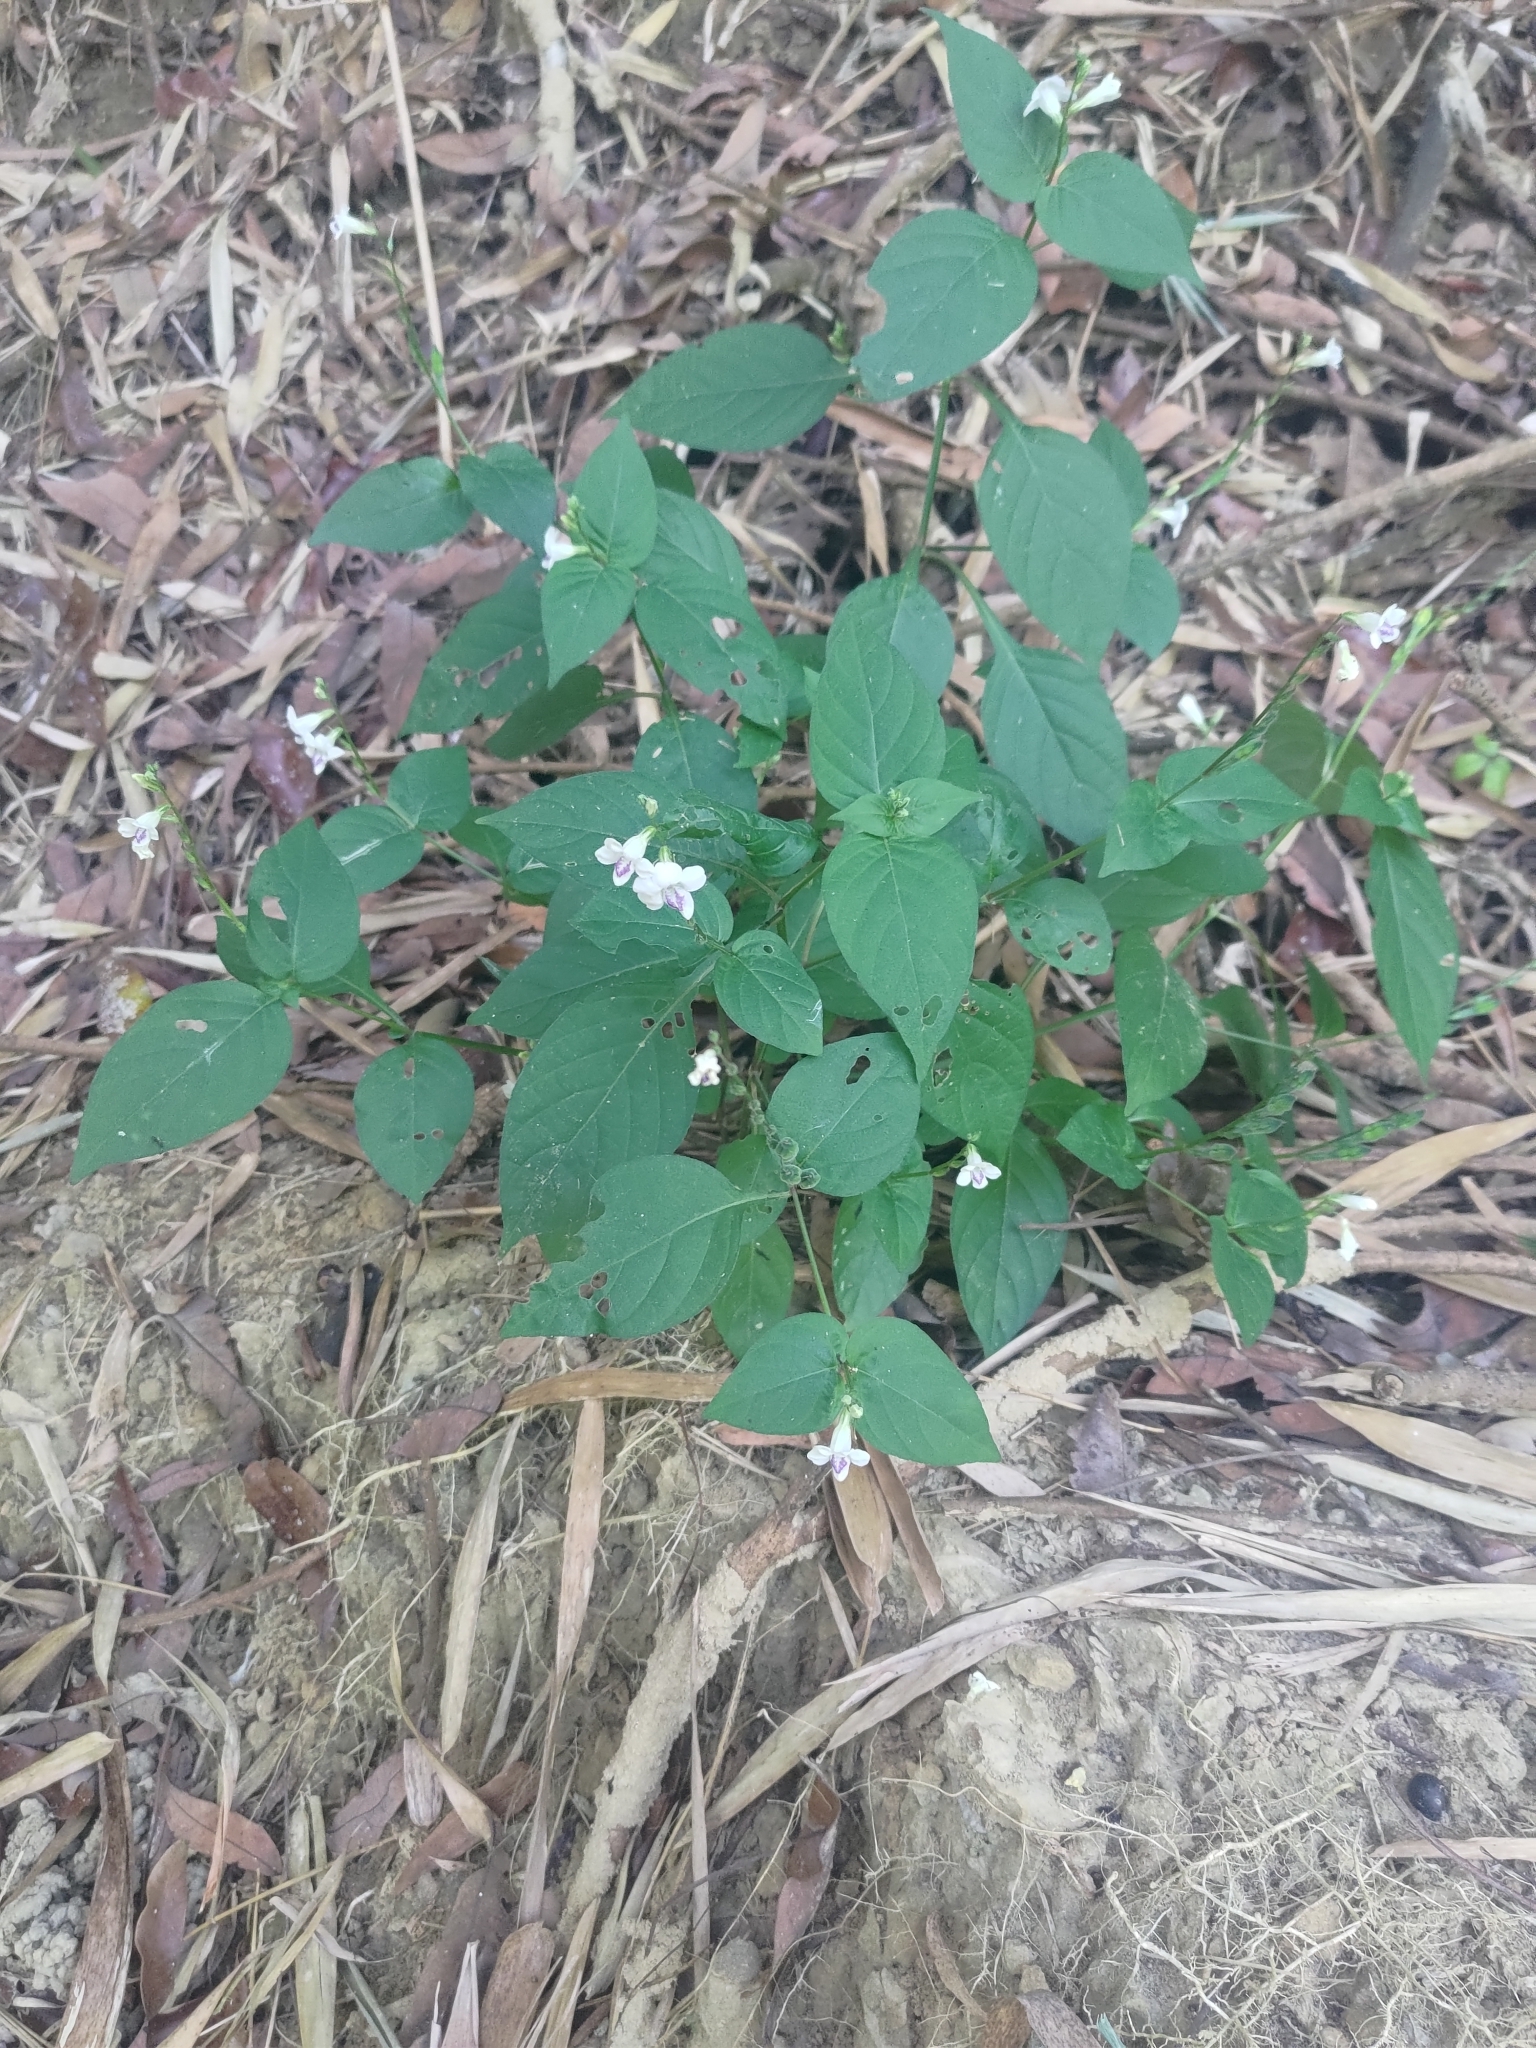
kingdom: Plantae
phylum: Tracheophyta
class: Magnoliopsida
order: Lamiales
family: Acanthaceae
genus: Asystasia
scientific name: Asystasia intrusa
